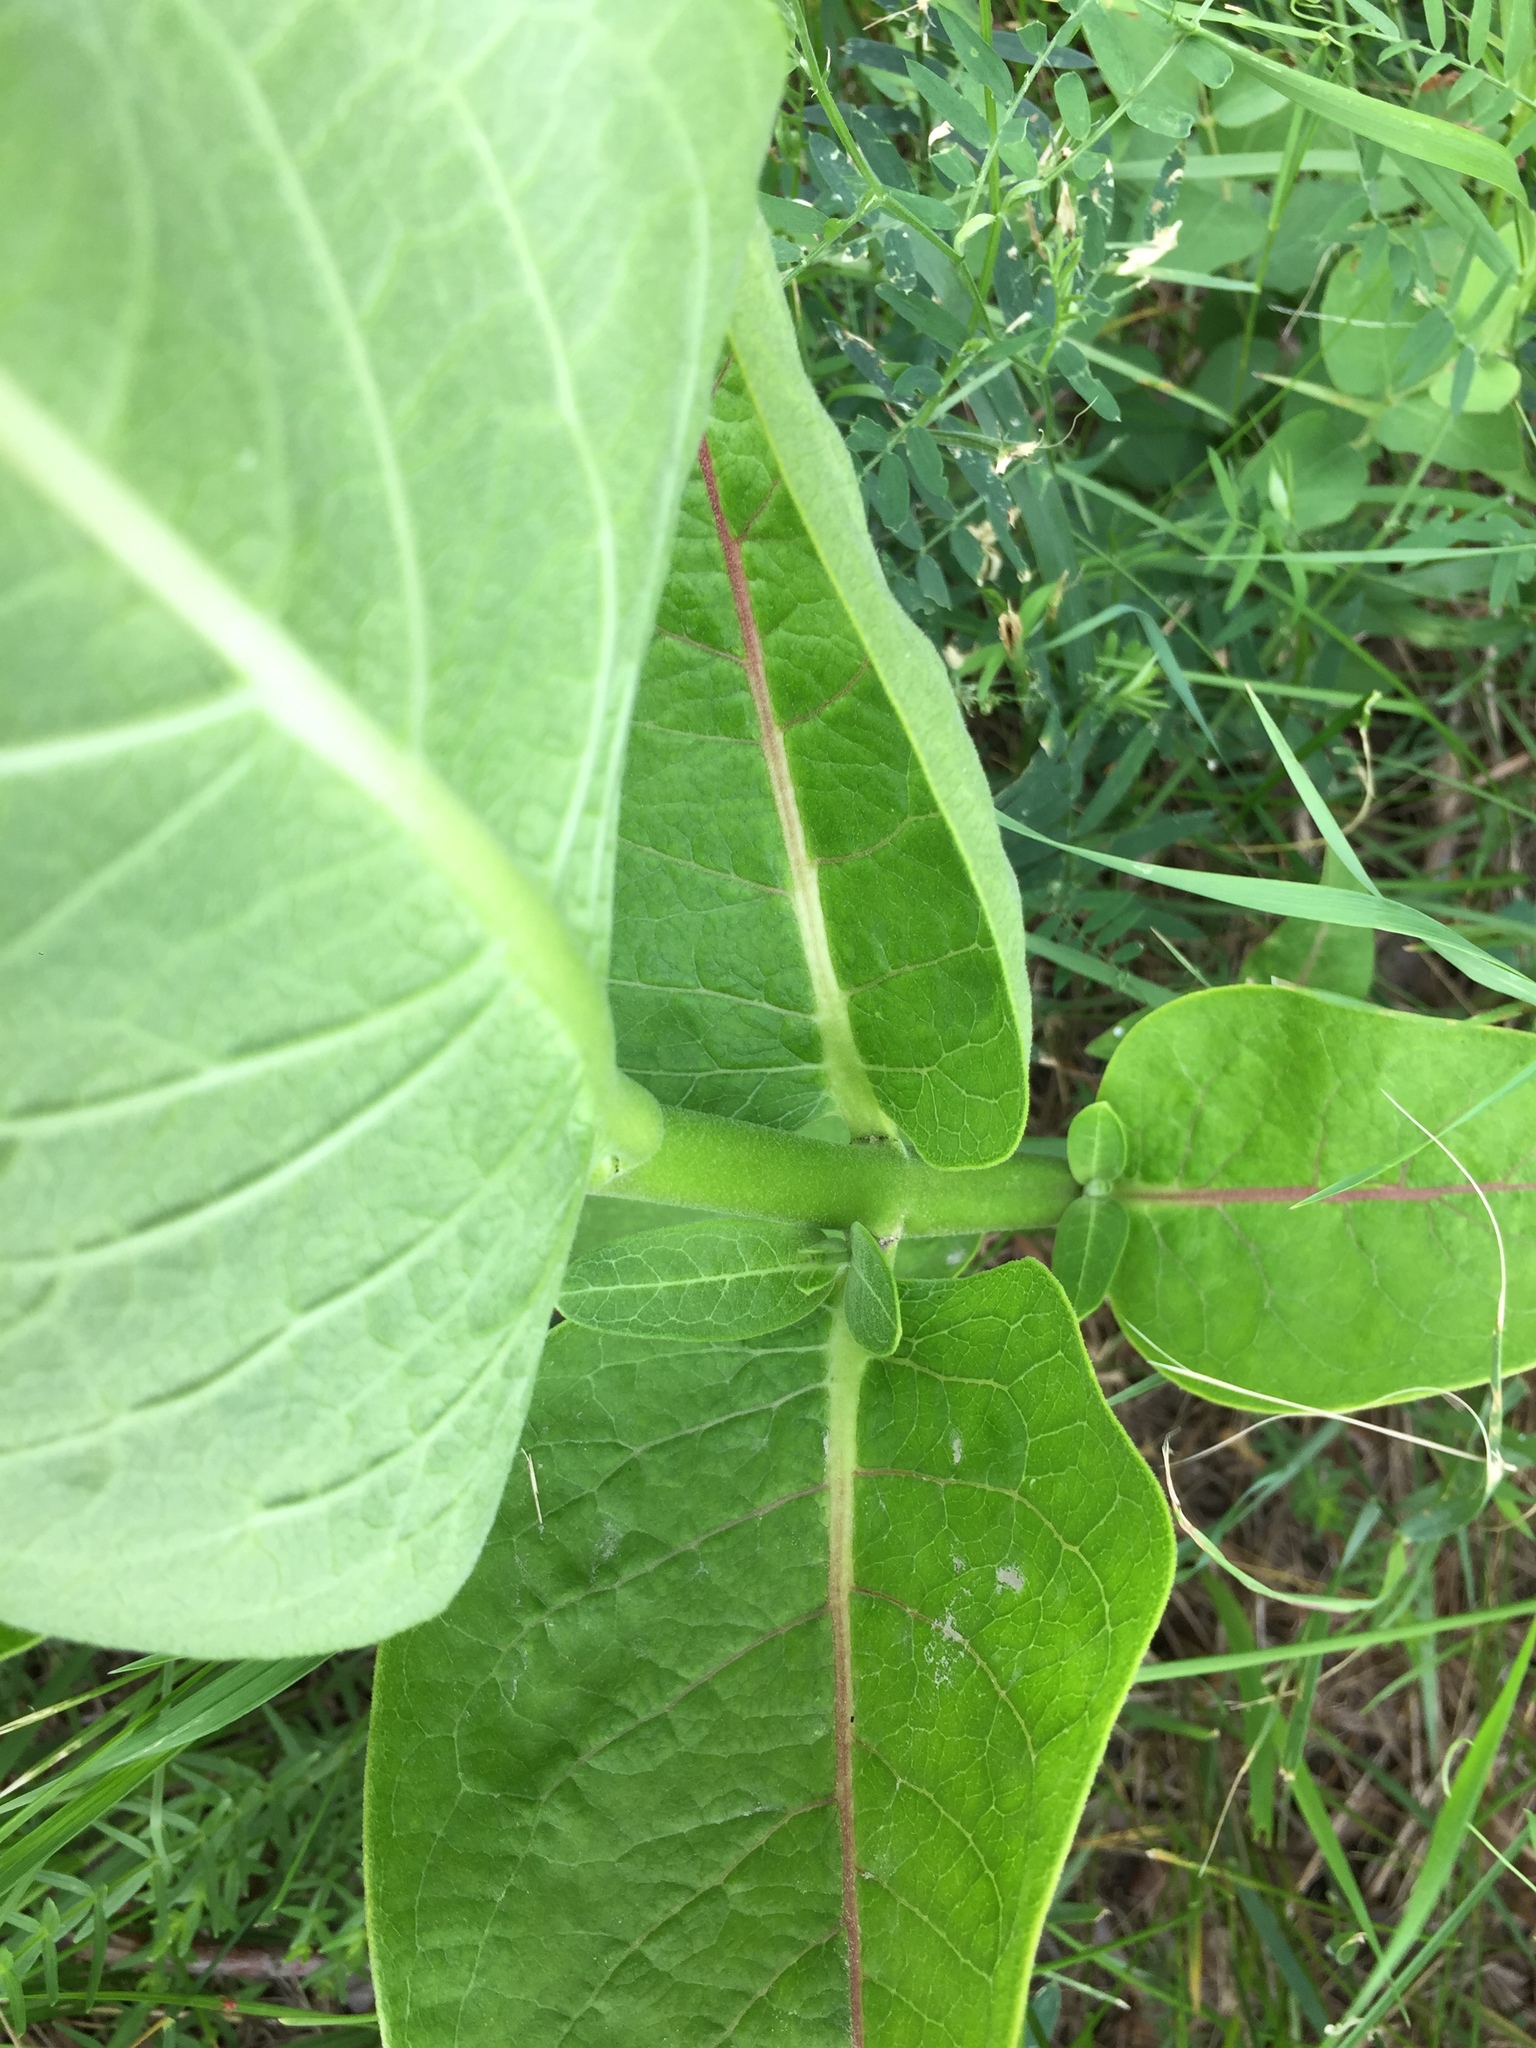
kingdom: Plantae
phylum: Tracheophyta
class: Magnoliopsida
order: Gentianales
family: Apocynaceae
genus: Asclepias
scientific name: Asclepias syriaca
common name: Common milkweed
